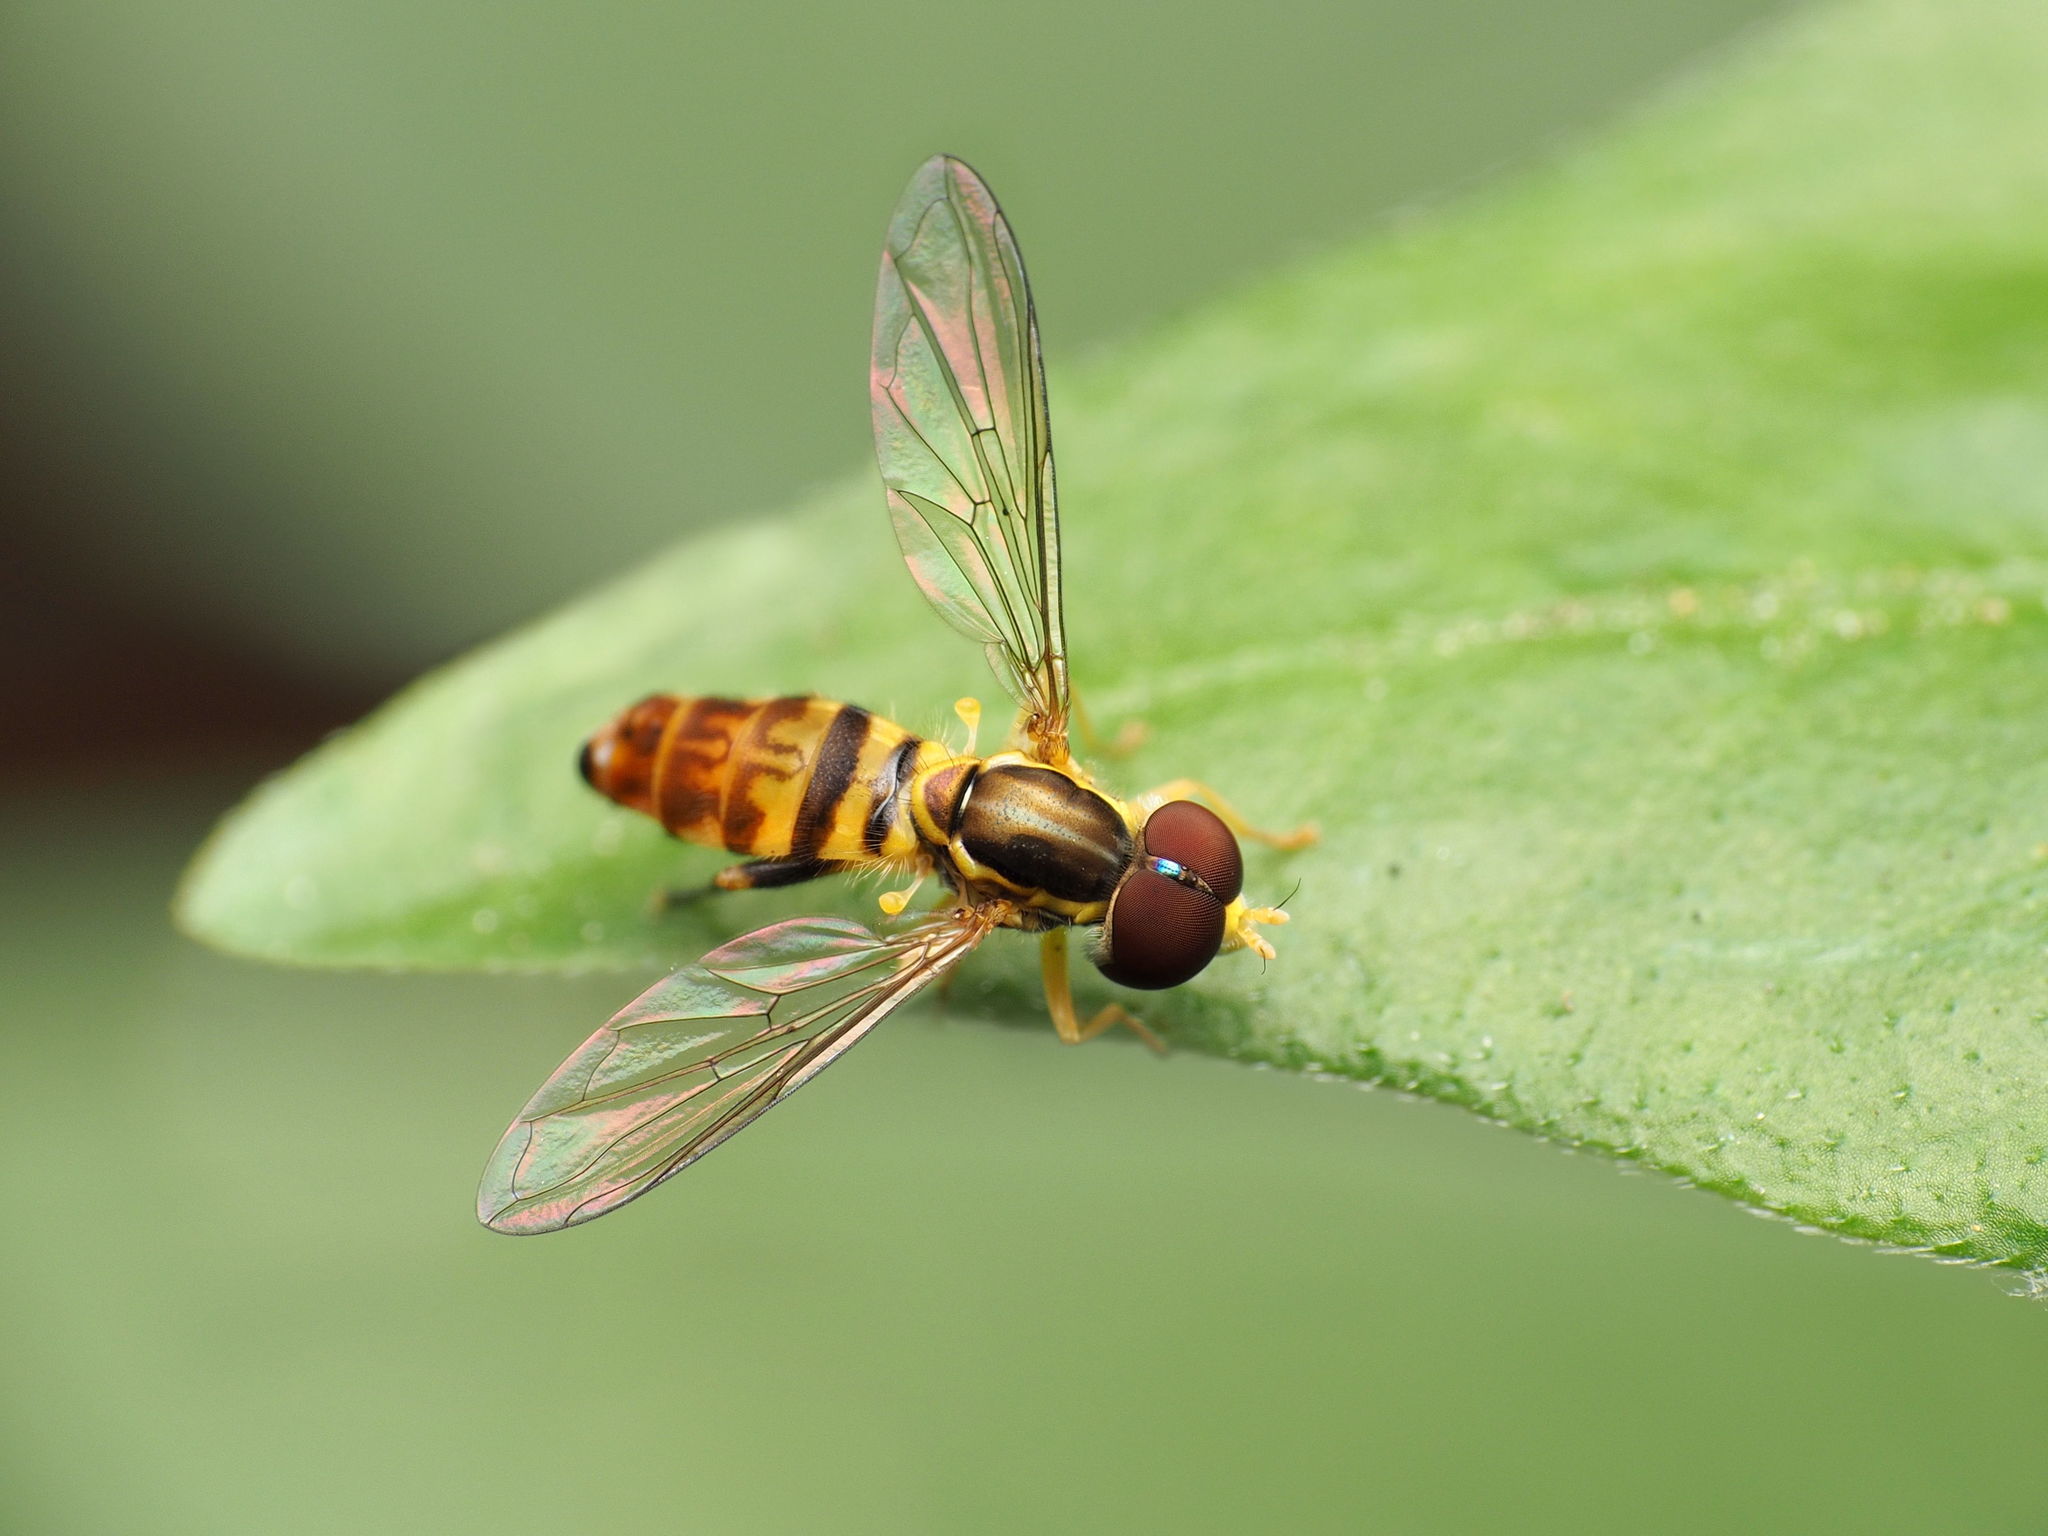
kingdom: Animalia
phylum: Arthropoda
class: Insecta
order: Diptera
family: Syrphidae
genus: Toxomerus
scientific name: Toxomerus geminatus
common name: Eastern calligrapher
